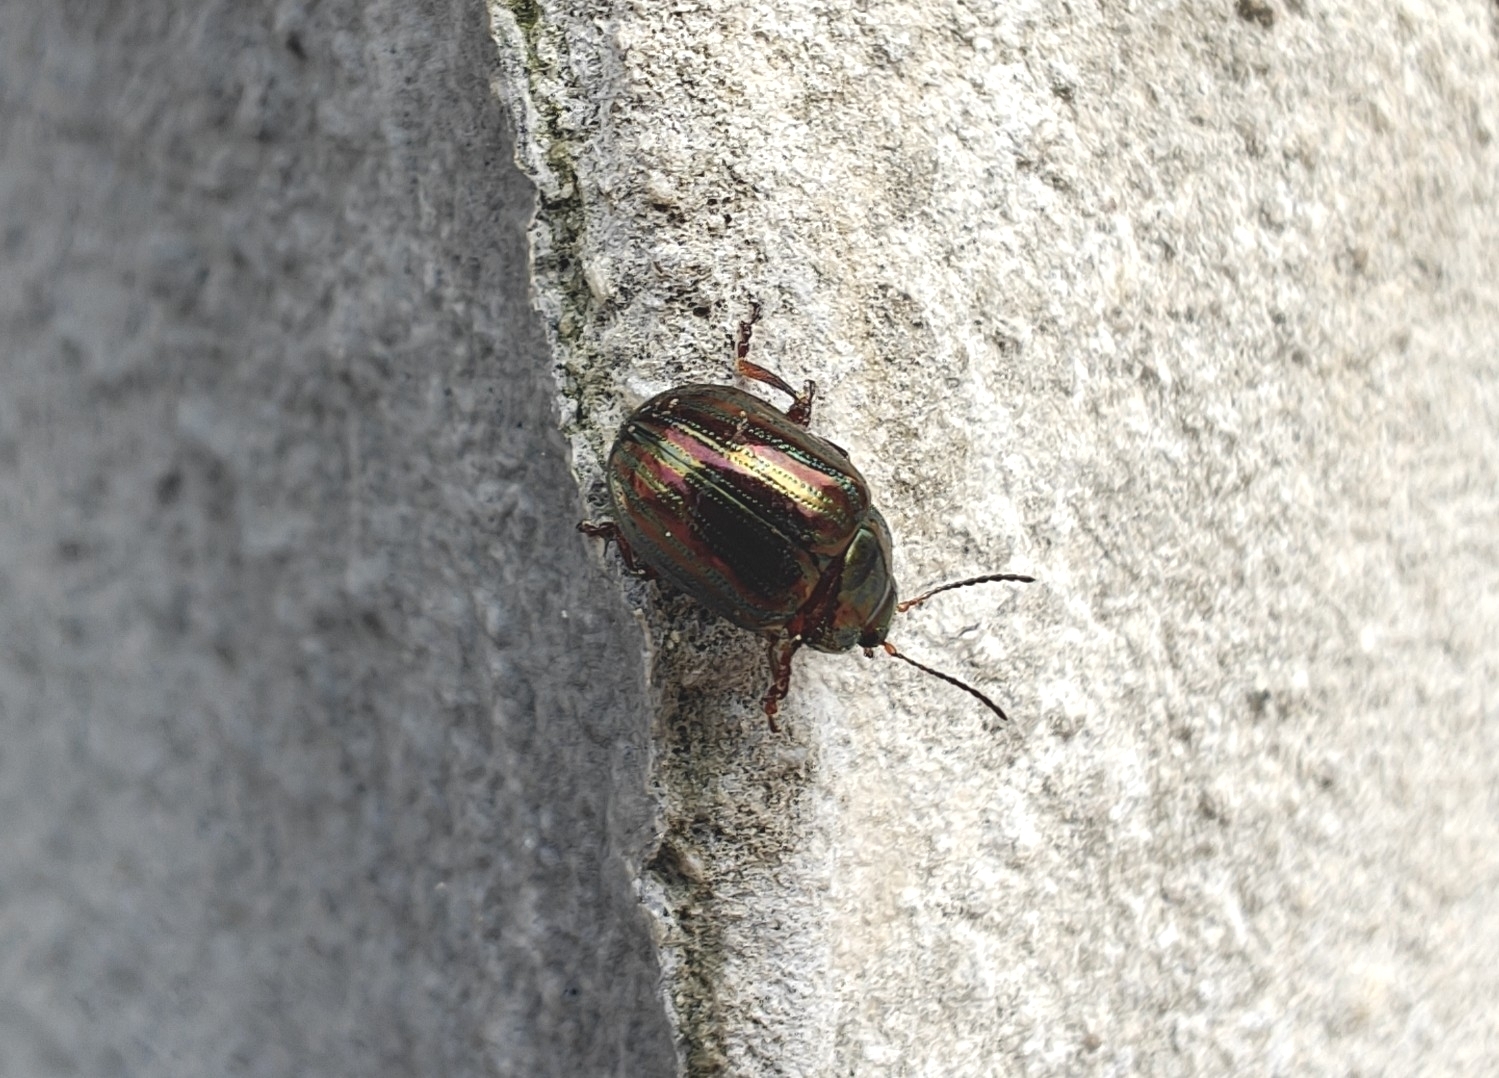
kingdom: Animalia
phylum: Arthropoda
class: Insecta
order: Coleoptera
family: Chrysomelidae
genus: Chrysolina
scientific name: Chrysolina americana
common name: Rosemary beetle
